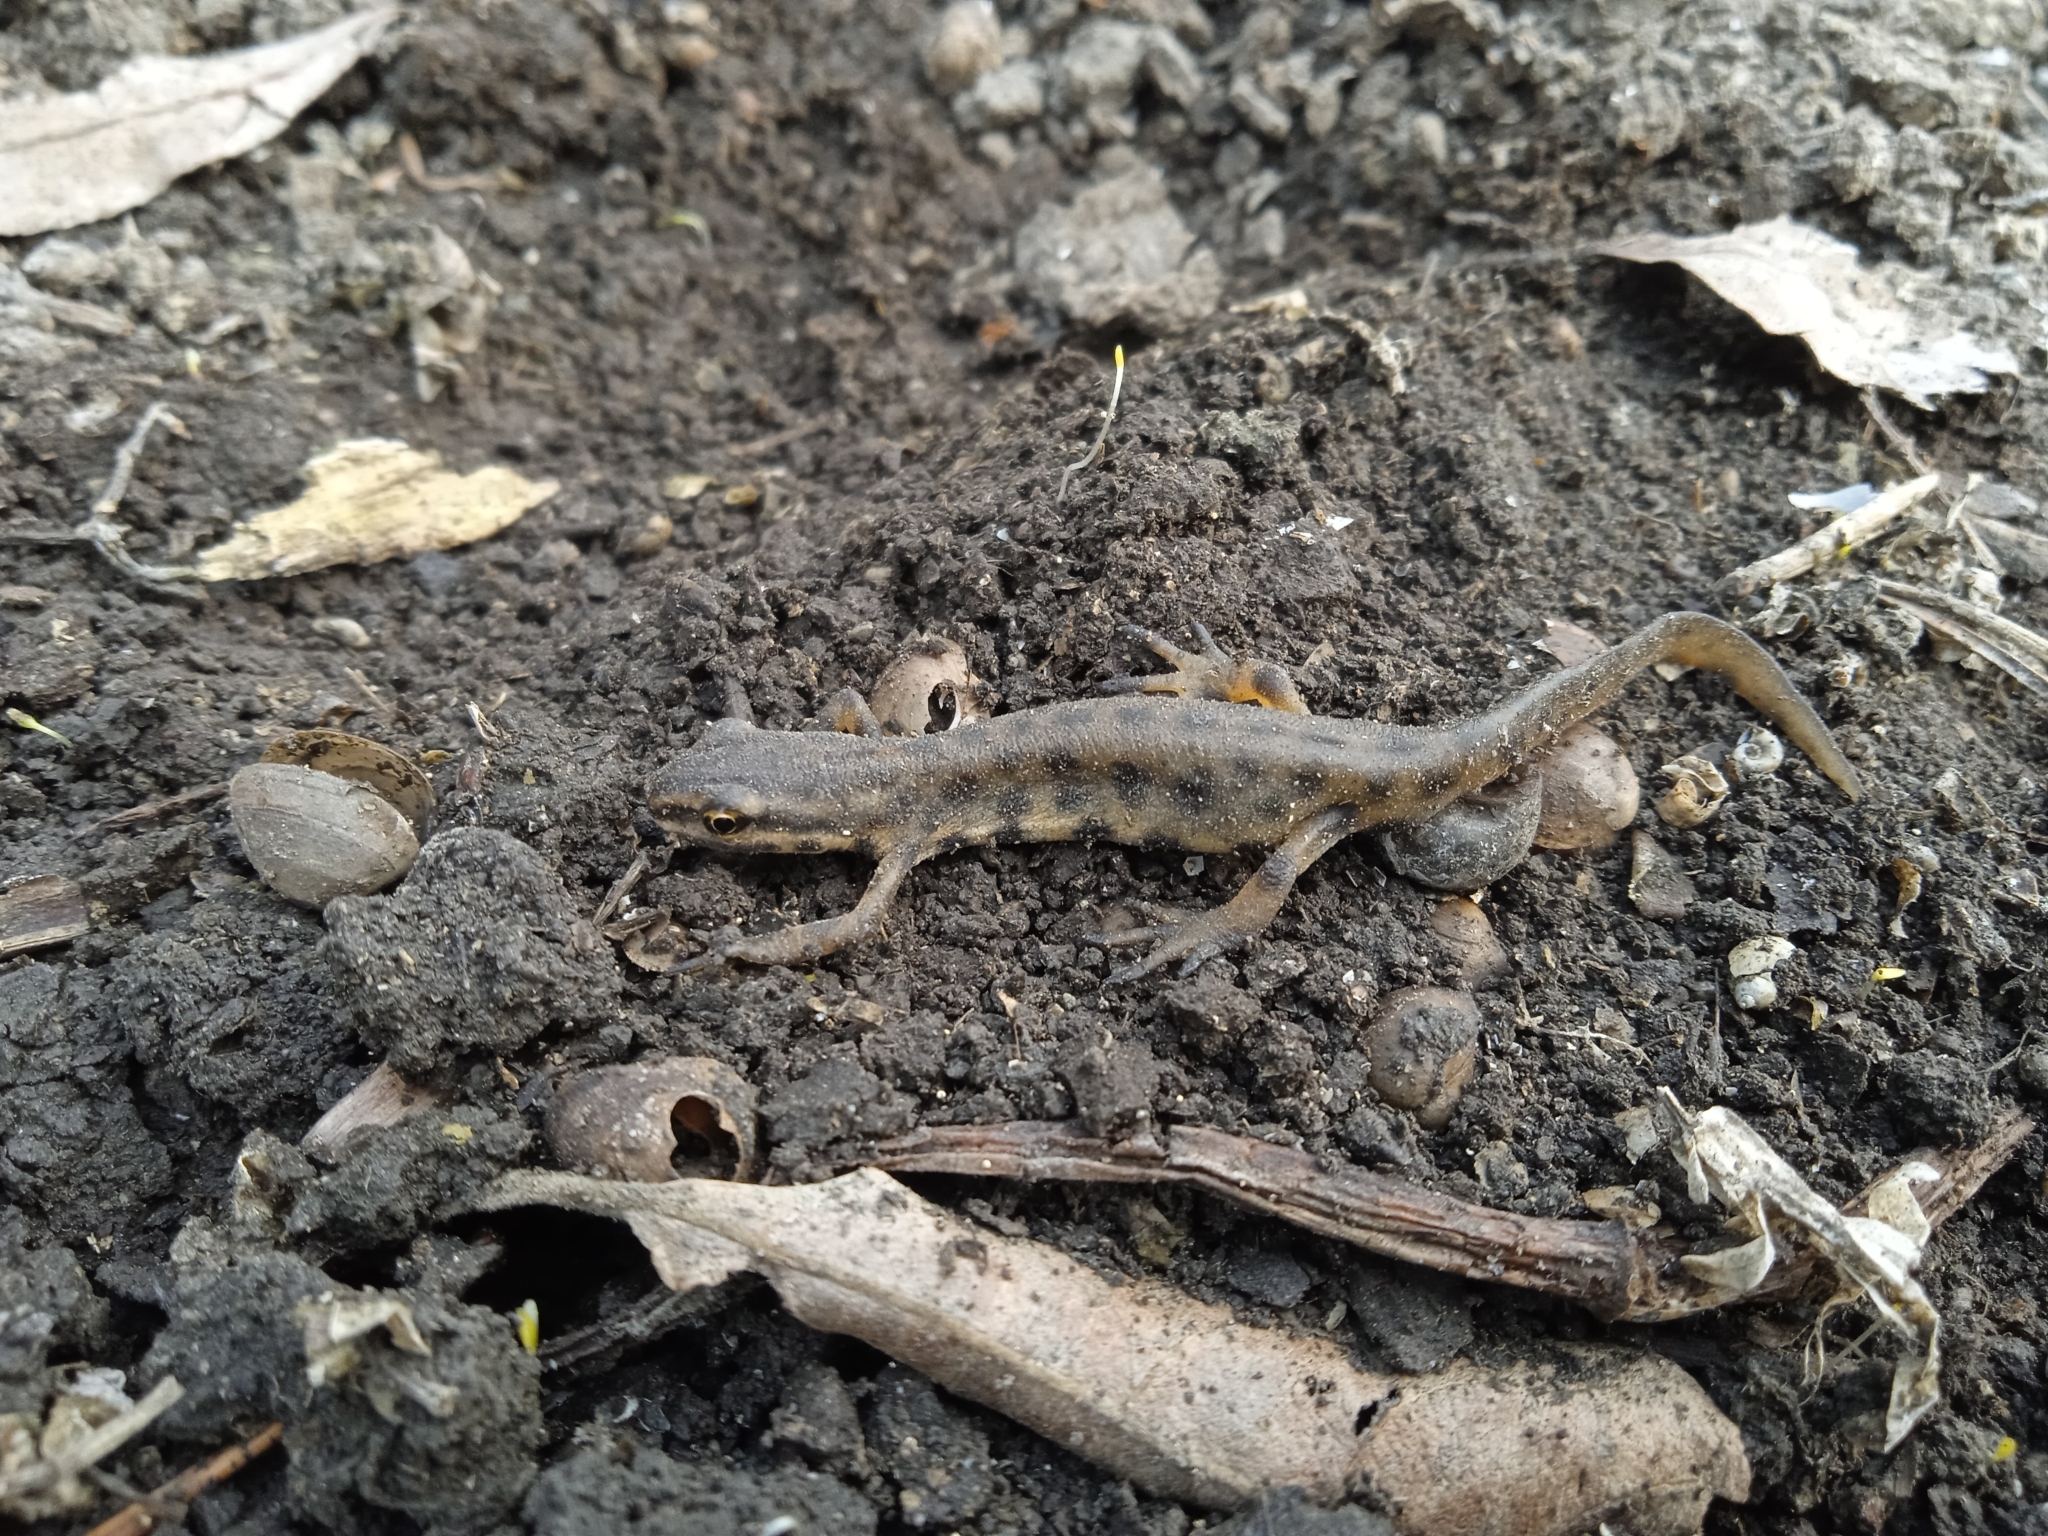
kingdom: Animalia
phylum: Chordata
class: Amphibia
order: Caudata
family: Salamandridae
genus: Lissotriton
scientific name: Lissotriton vulgaris
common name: Smooth newt
